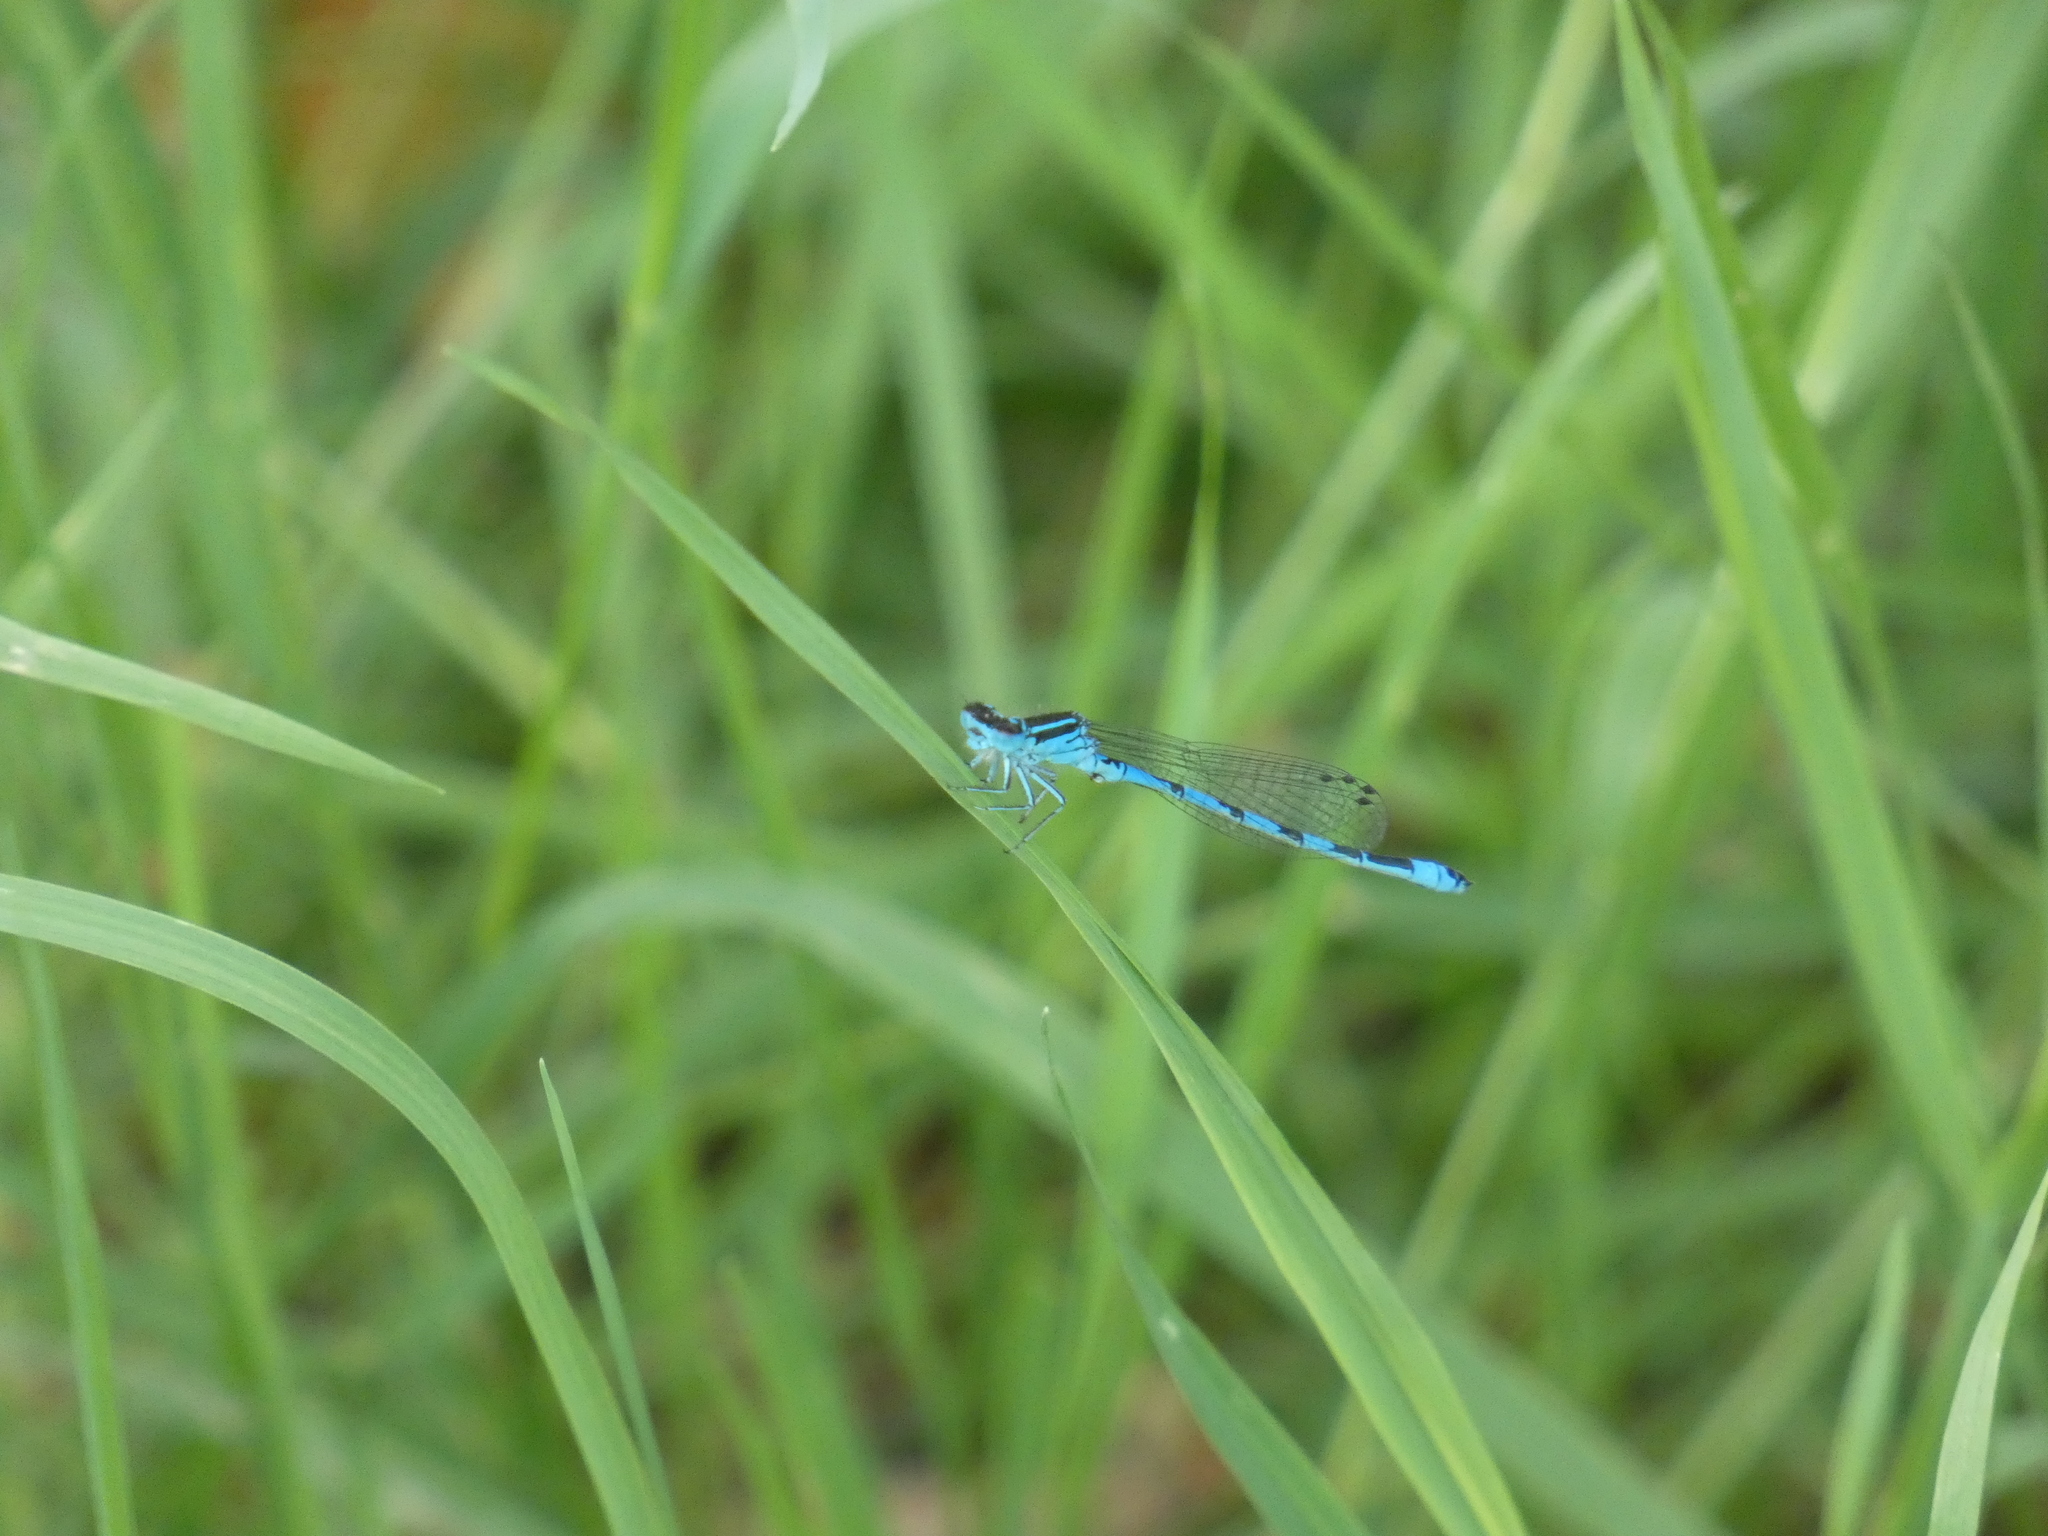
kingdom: Animalia
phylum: Arthropoda
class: Insecta
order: Odonata
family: Coenagrionidae
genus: Coenagrion
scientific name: Coenagrion mercuriale
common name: Southern damselfly
